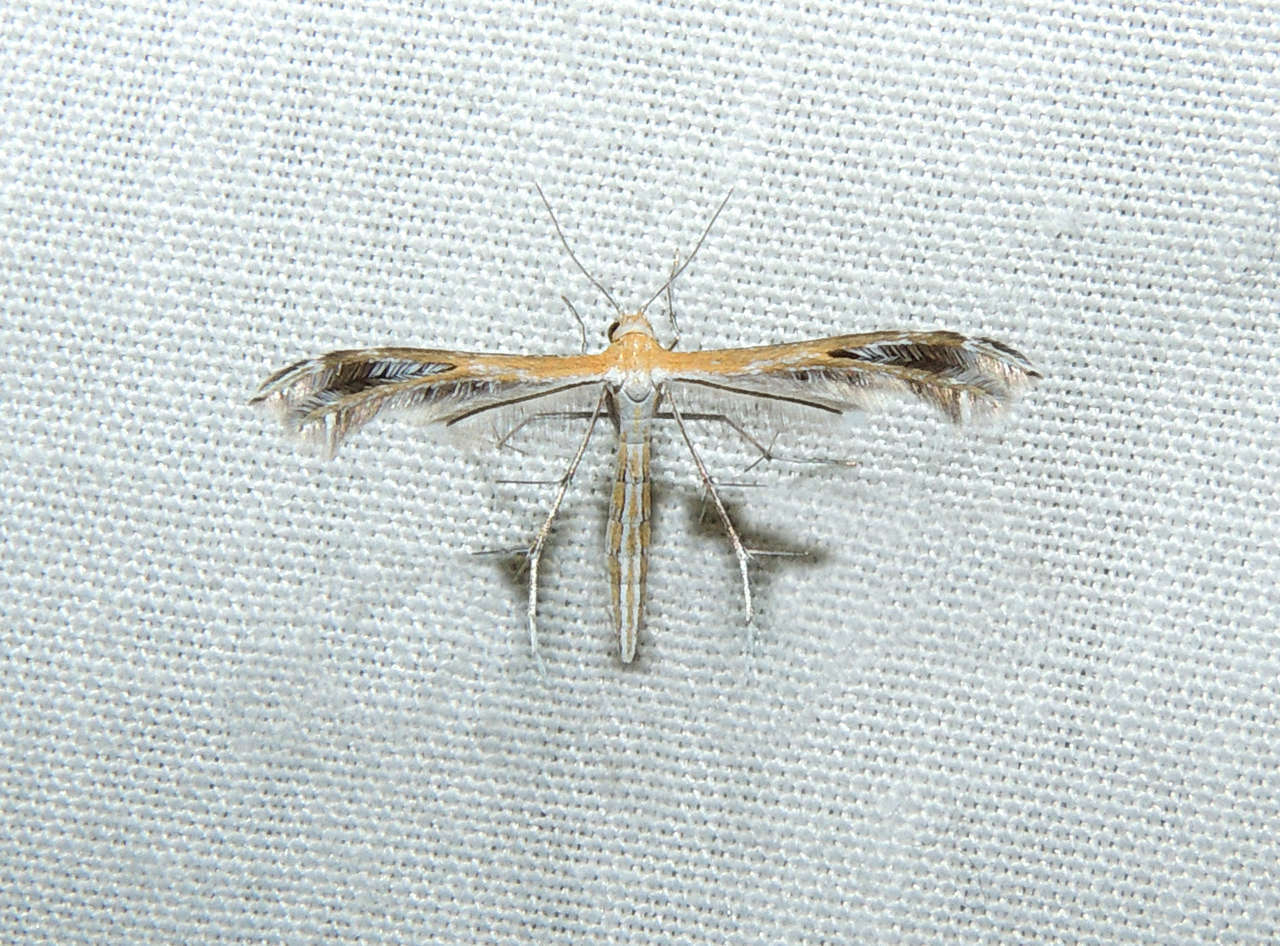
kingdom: Animalia
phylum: Arthropoda
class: Insecta
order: Lepidoptera
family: Pterophoridae
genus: Stangeia
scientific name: Stangeia xerodes
